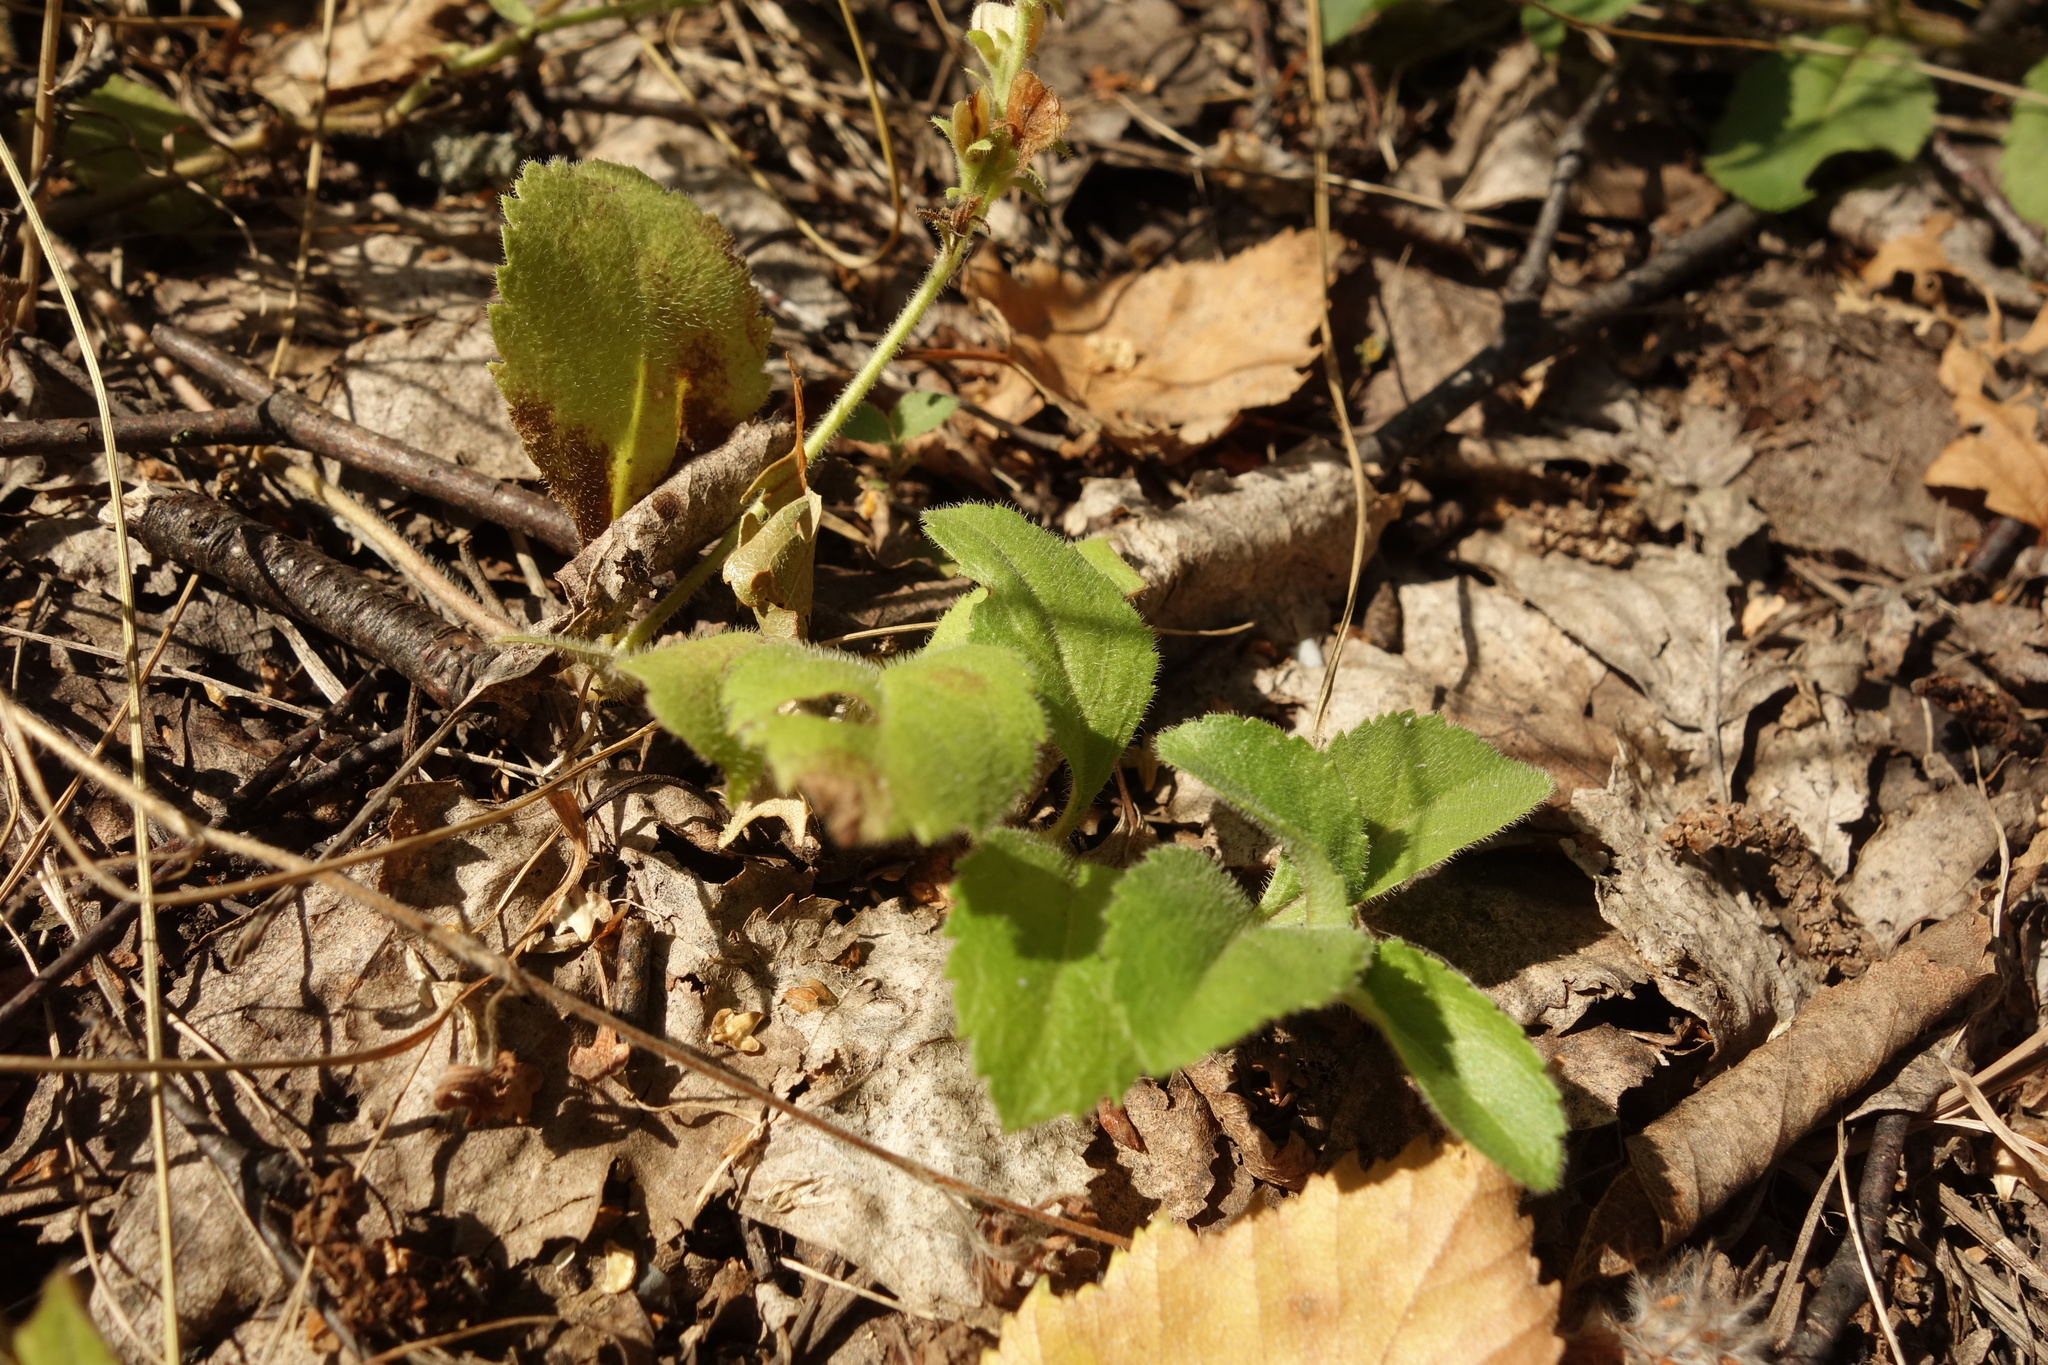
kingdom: Plantae
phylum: Tracheophyta
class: Magnoliopsida
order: Lamiales
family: Plantaginaceae
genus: Veronica
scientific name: Veronica officinalis
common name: Common speedwell
